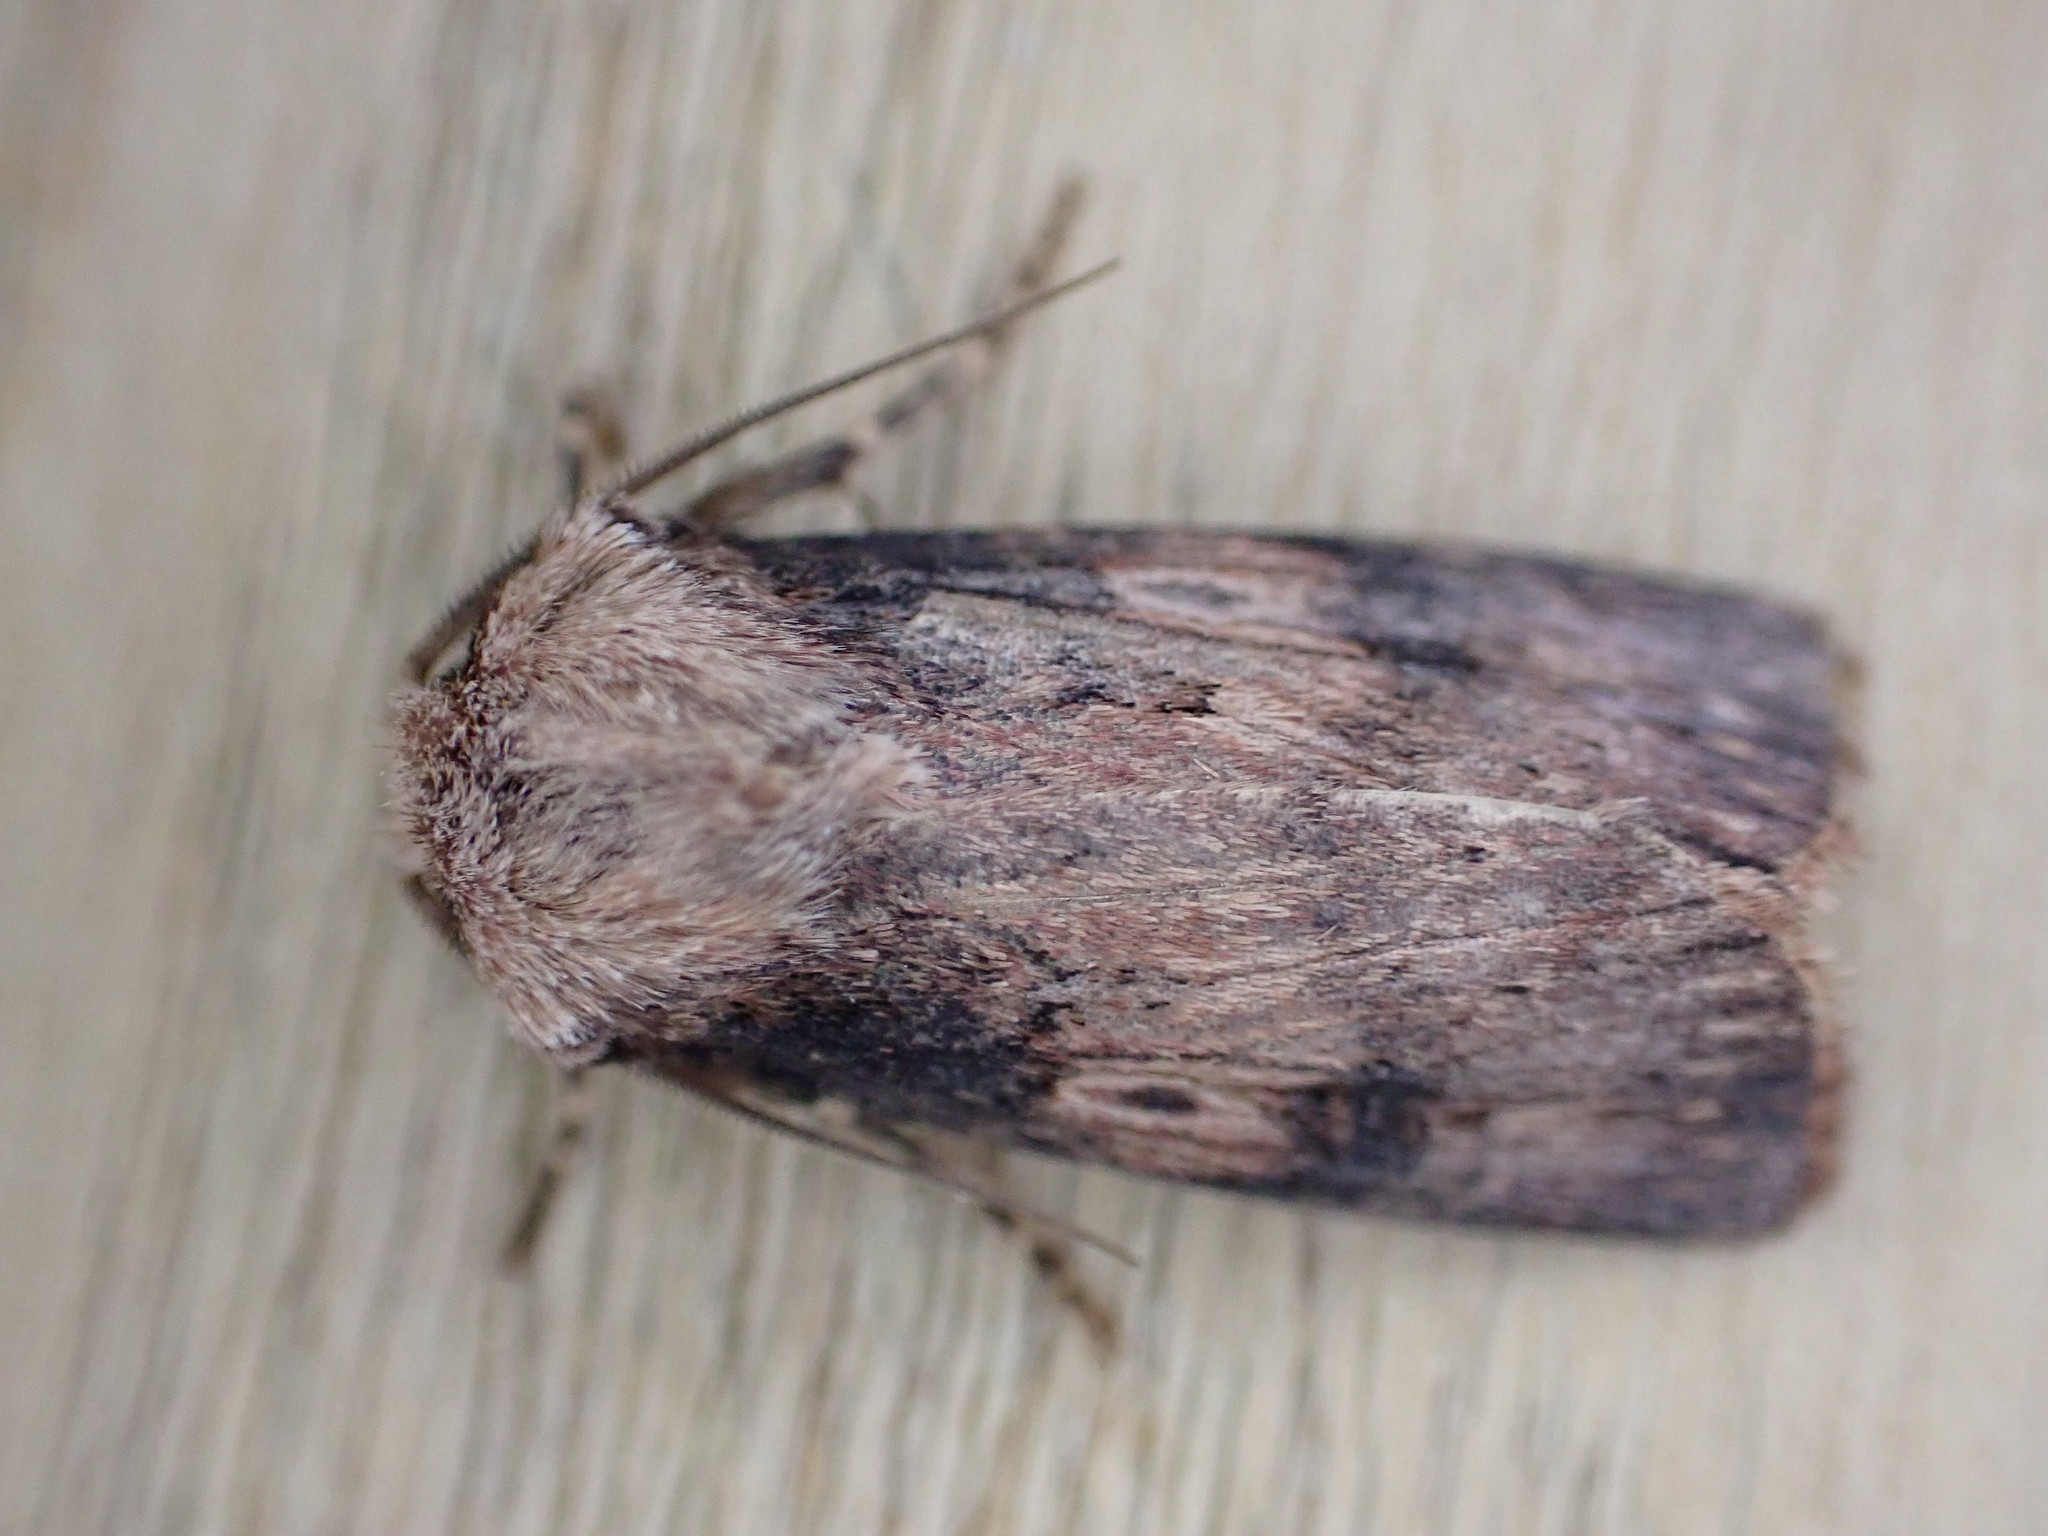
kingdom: Animalia
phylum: Arthropoda
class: Insecta
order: Lepidoptera
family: Noctuidae
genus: Agrotis
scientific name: Agrotis puta
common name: Shuttle-shaped dart
